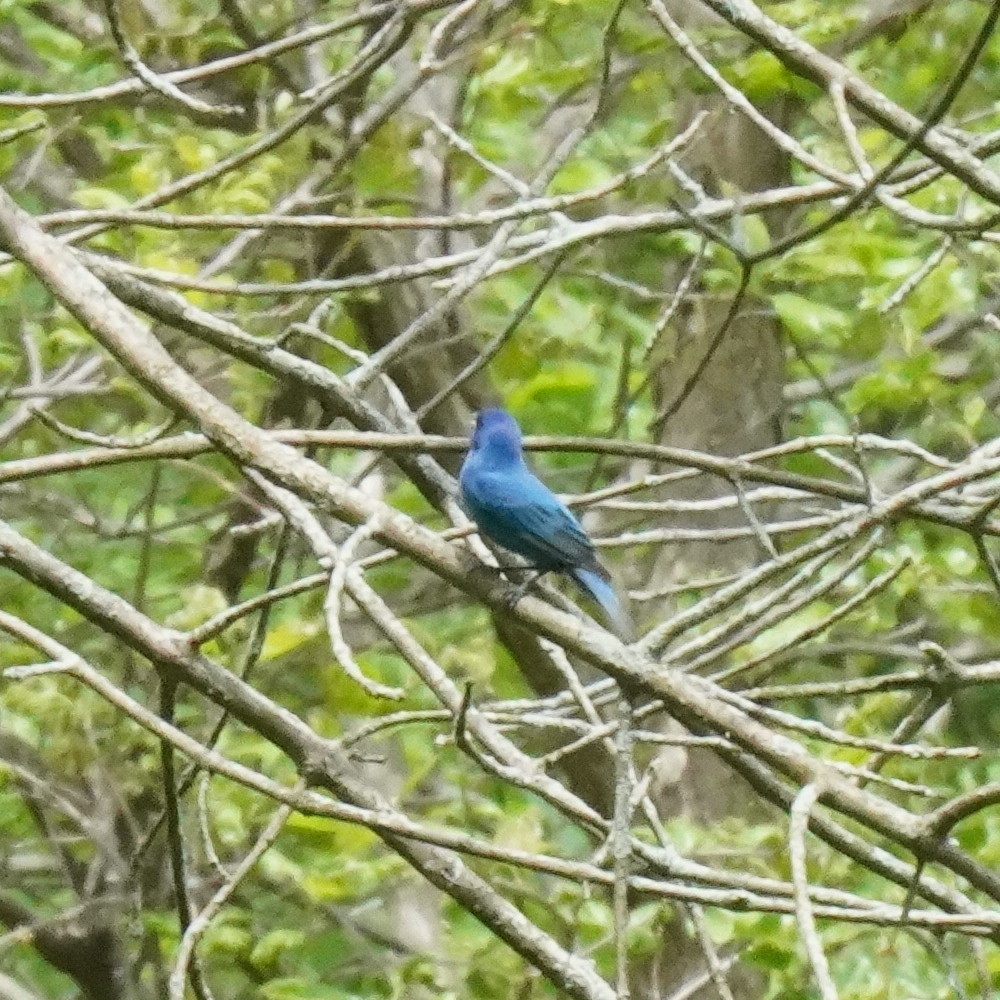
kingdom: Animalia
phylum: Chordata
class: Aves
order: Passeriformes
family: Cardinalidae
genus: Passerina
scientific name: Passerina cyanea
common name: Indigo bunting
